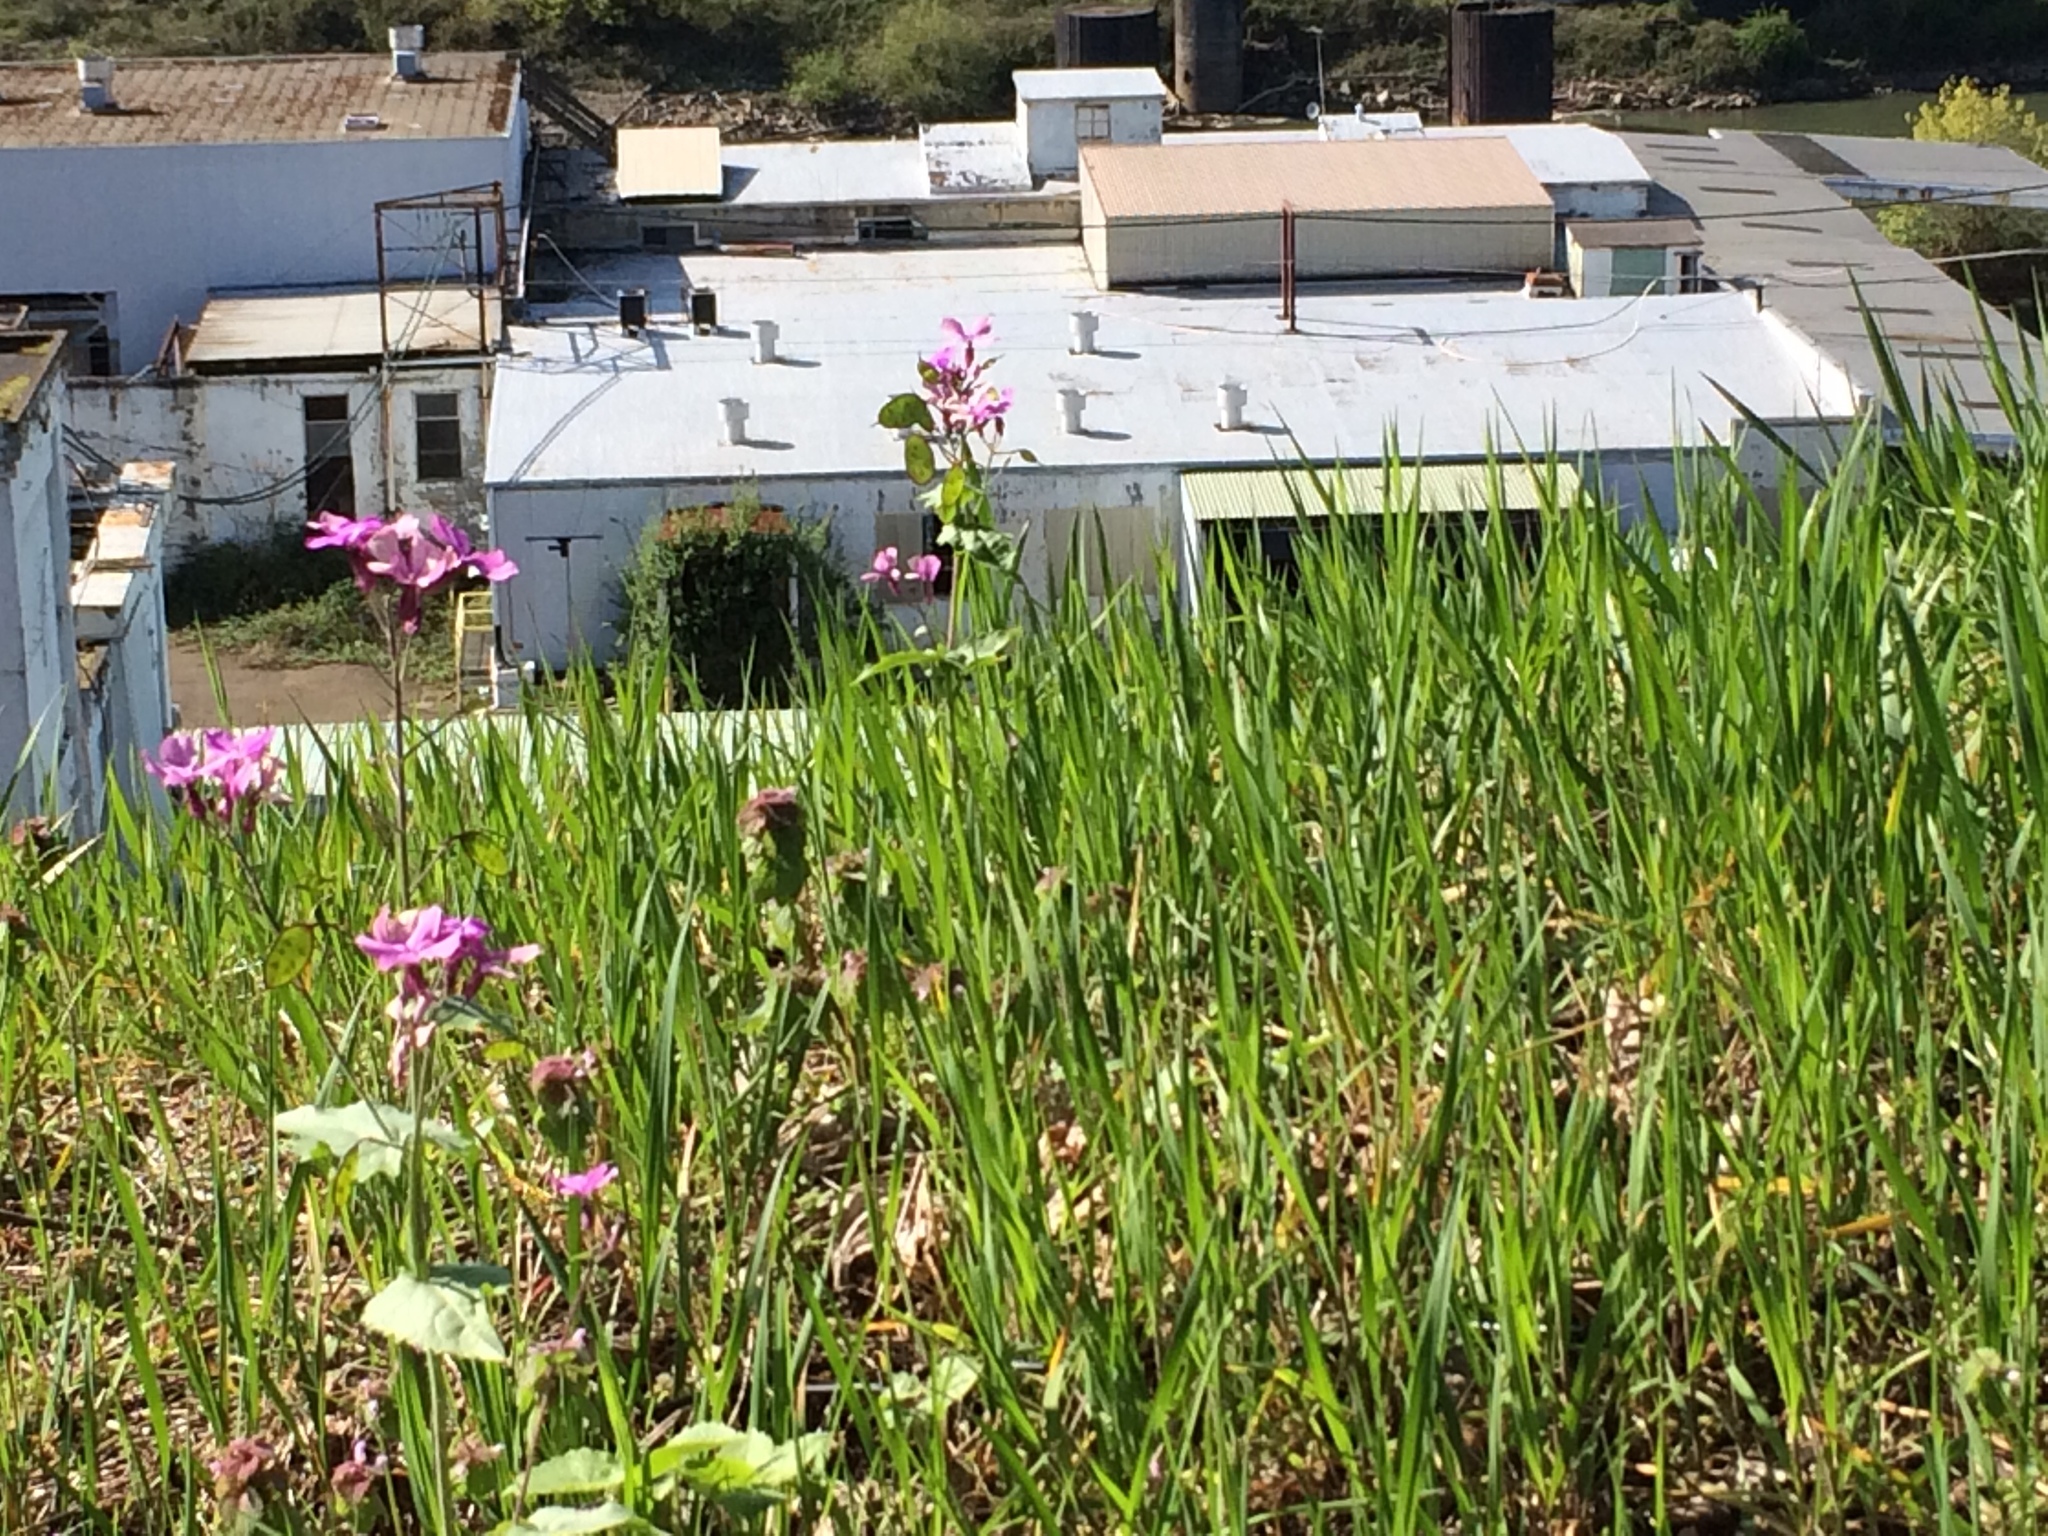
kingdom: Plantae
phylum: Tracheophyta
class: Magnoliopsida
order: Brassicales
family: Brassicaceae
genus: Lunaria
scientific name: Lunaria annua
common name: Honesty
